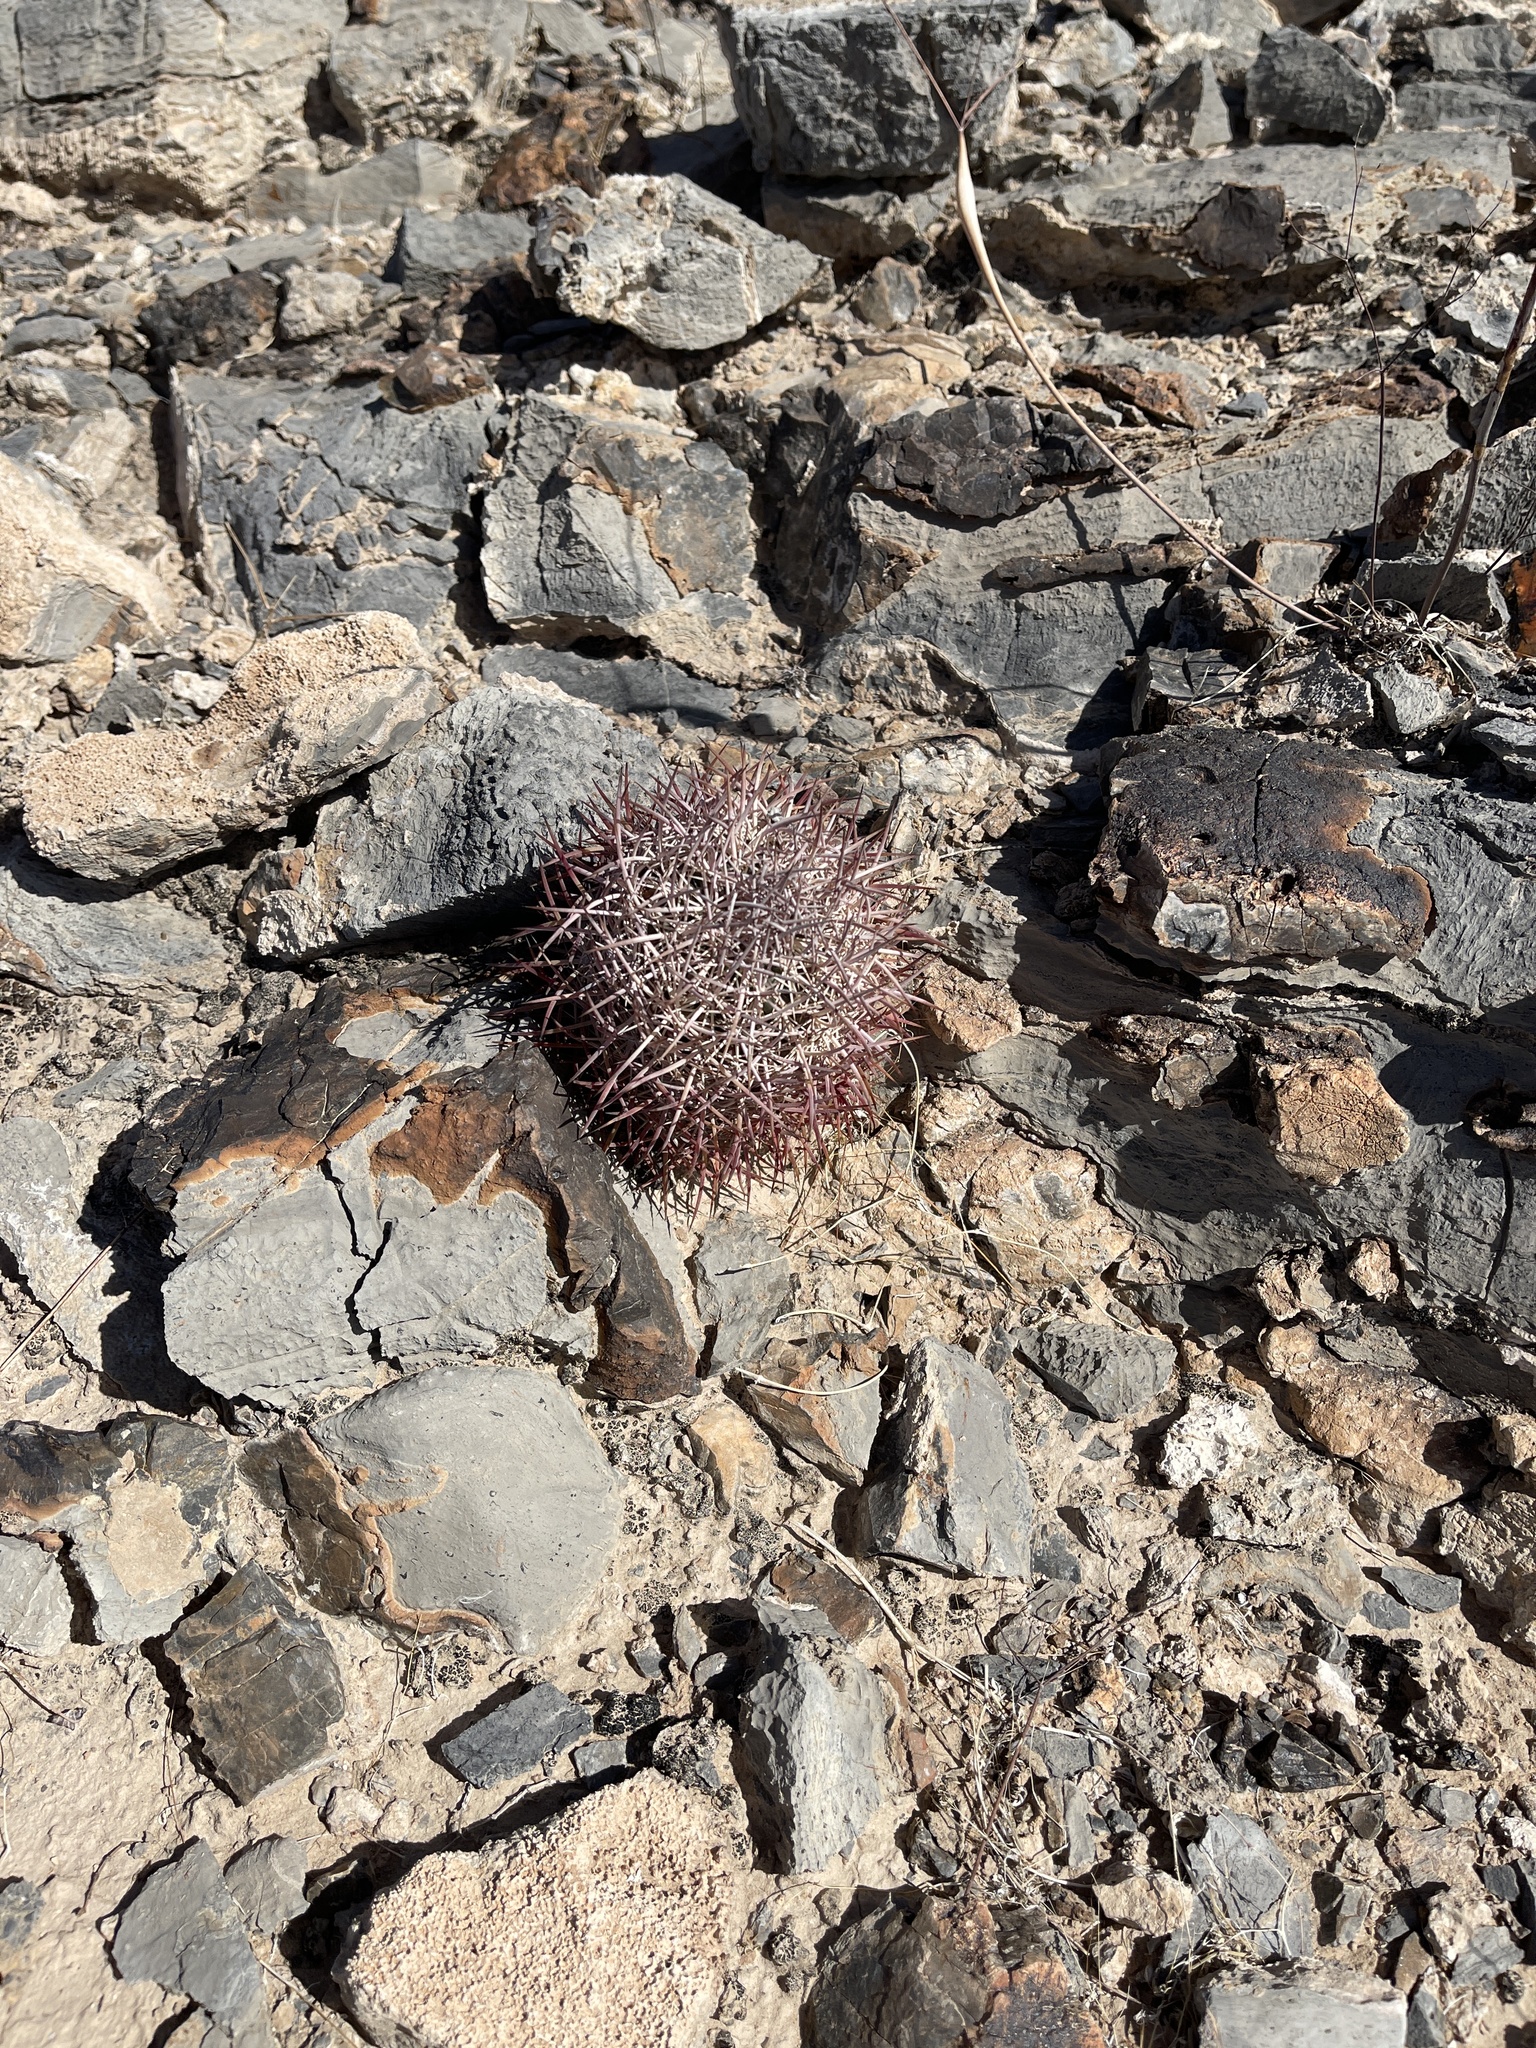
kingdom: Plantae
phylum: Tracheophyta
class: Magnoliopsida
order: Caryophyllales
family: Cactaceae
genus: Sclerocactus
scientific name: Sclerocactus johnsonii
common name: Eight-spine fishhook cactus
